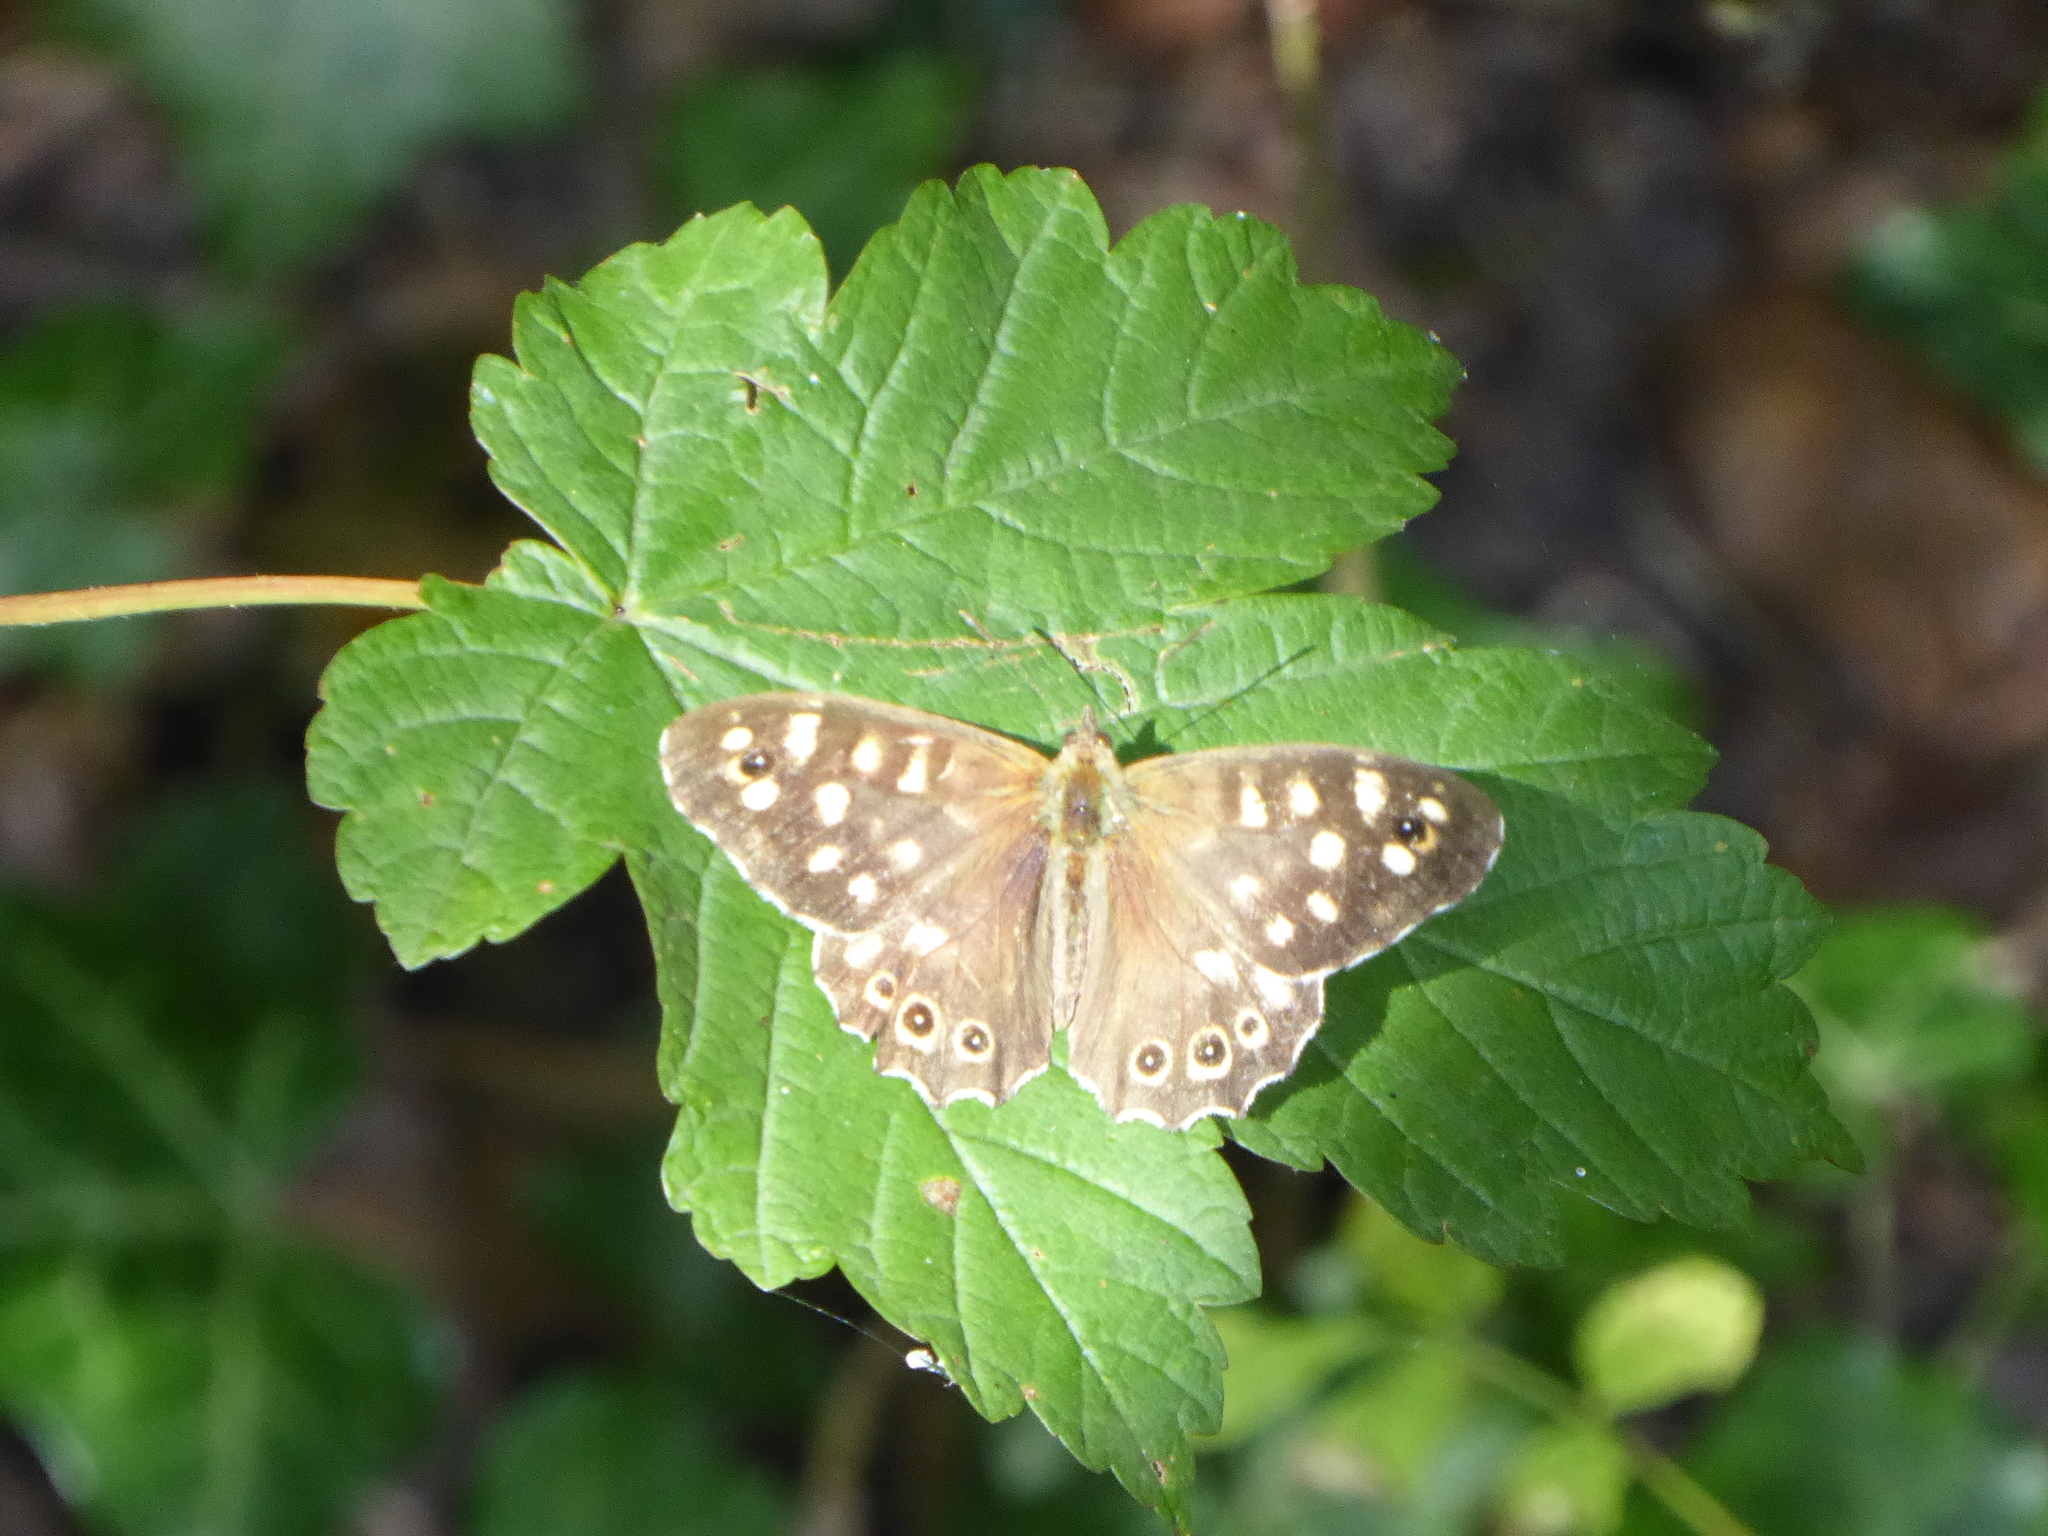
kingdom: Animalia
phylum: Arthropoda
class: Insecta
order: Lepidoptera
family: Nymphalidae
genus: Pararge
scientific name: Pararge aegeria
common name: Speckled wood
